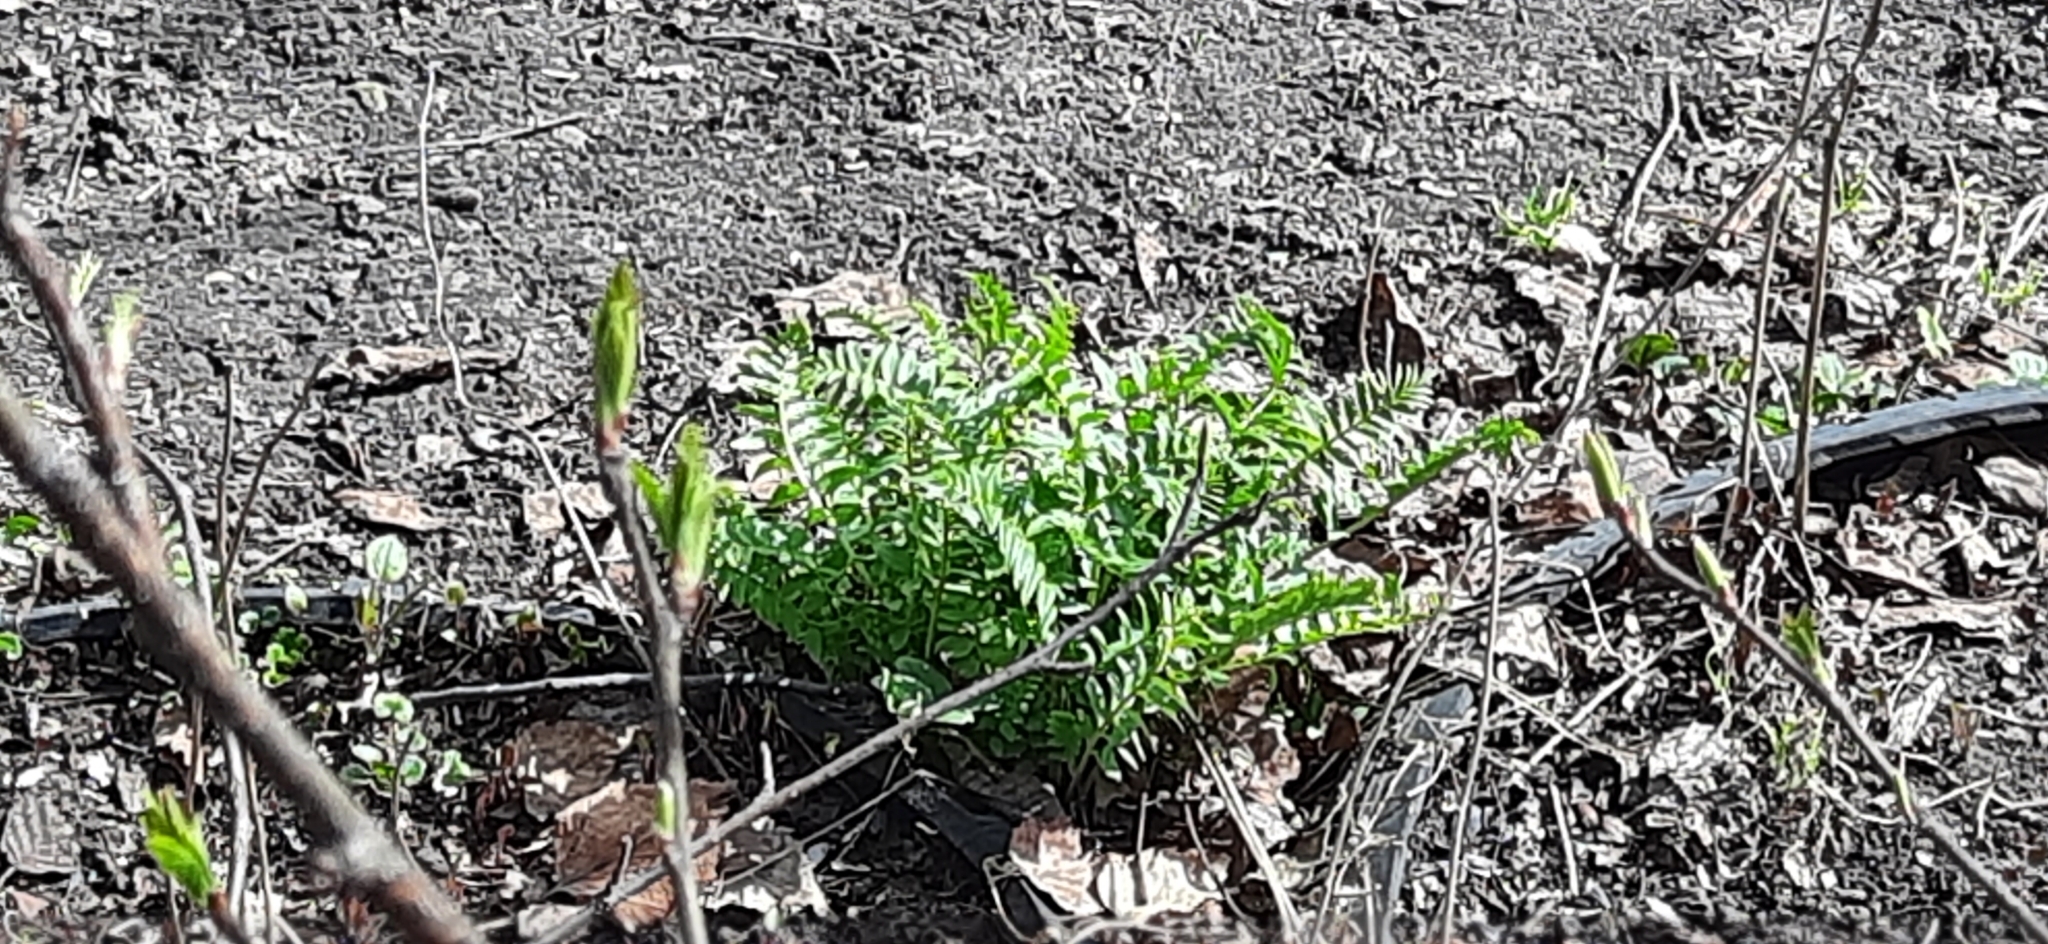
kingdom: Plantae
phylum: Tracheophyta
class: Magnoliopsida
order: Ericales
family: Polemoniaceae
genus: Polemonium
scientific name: Polemonium caeruleum
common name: Jacob's-ladder
